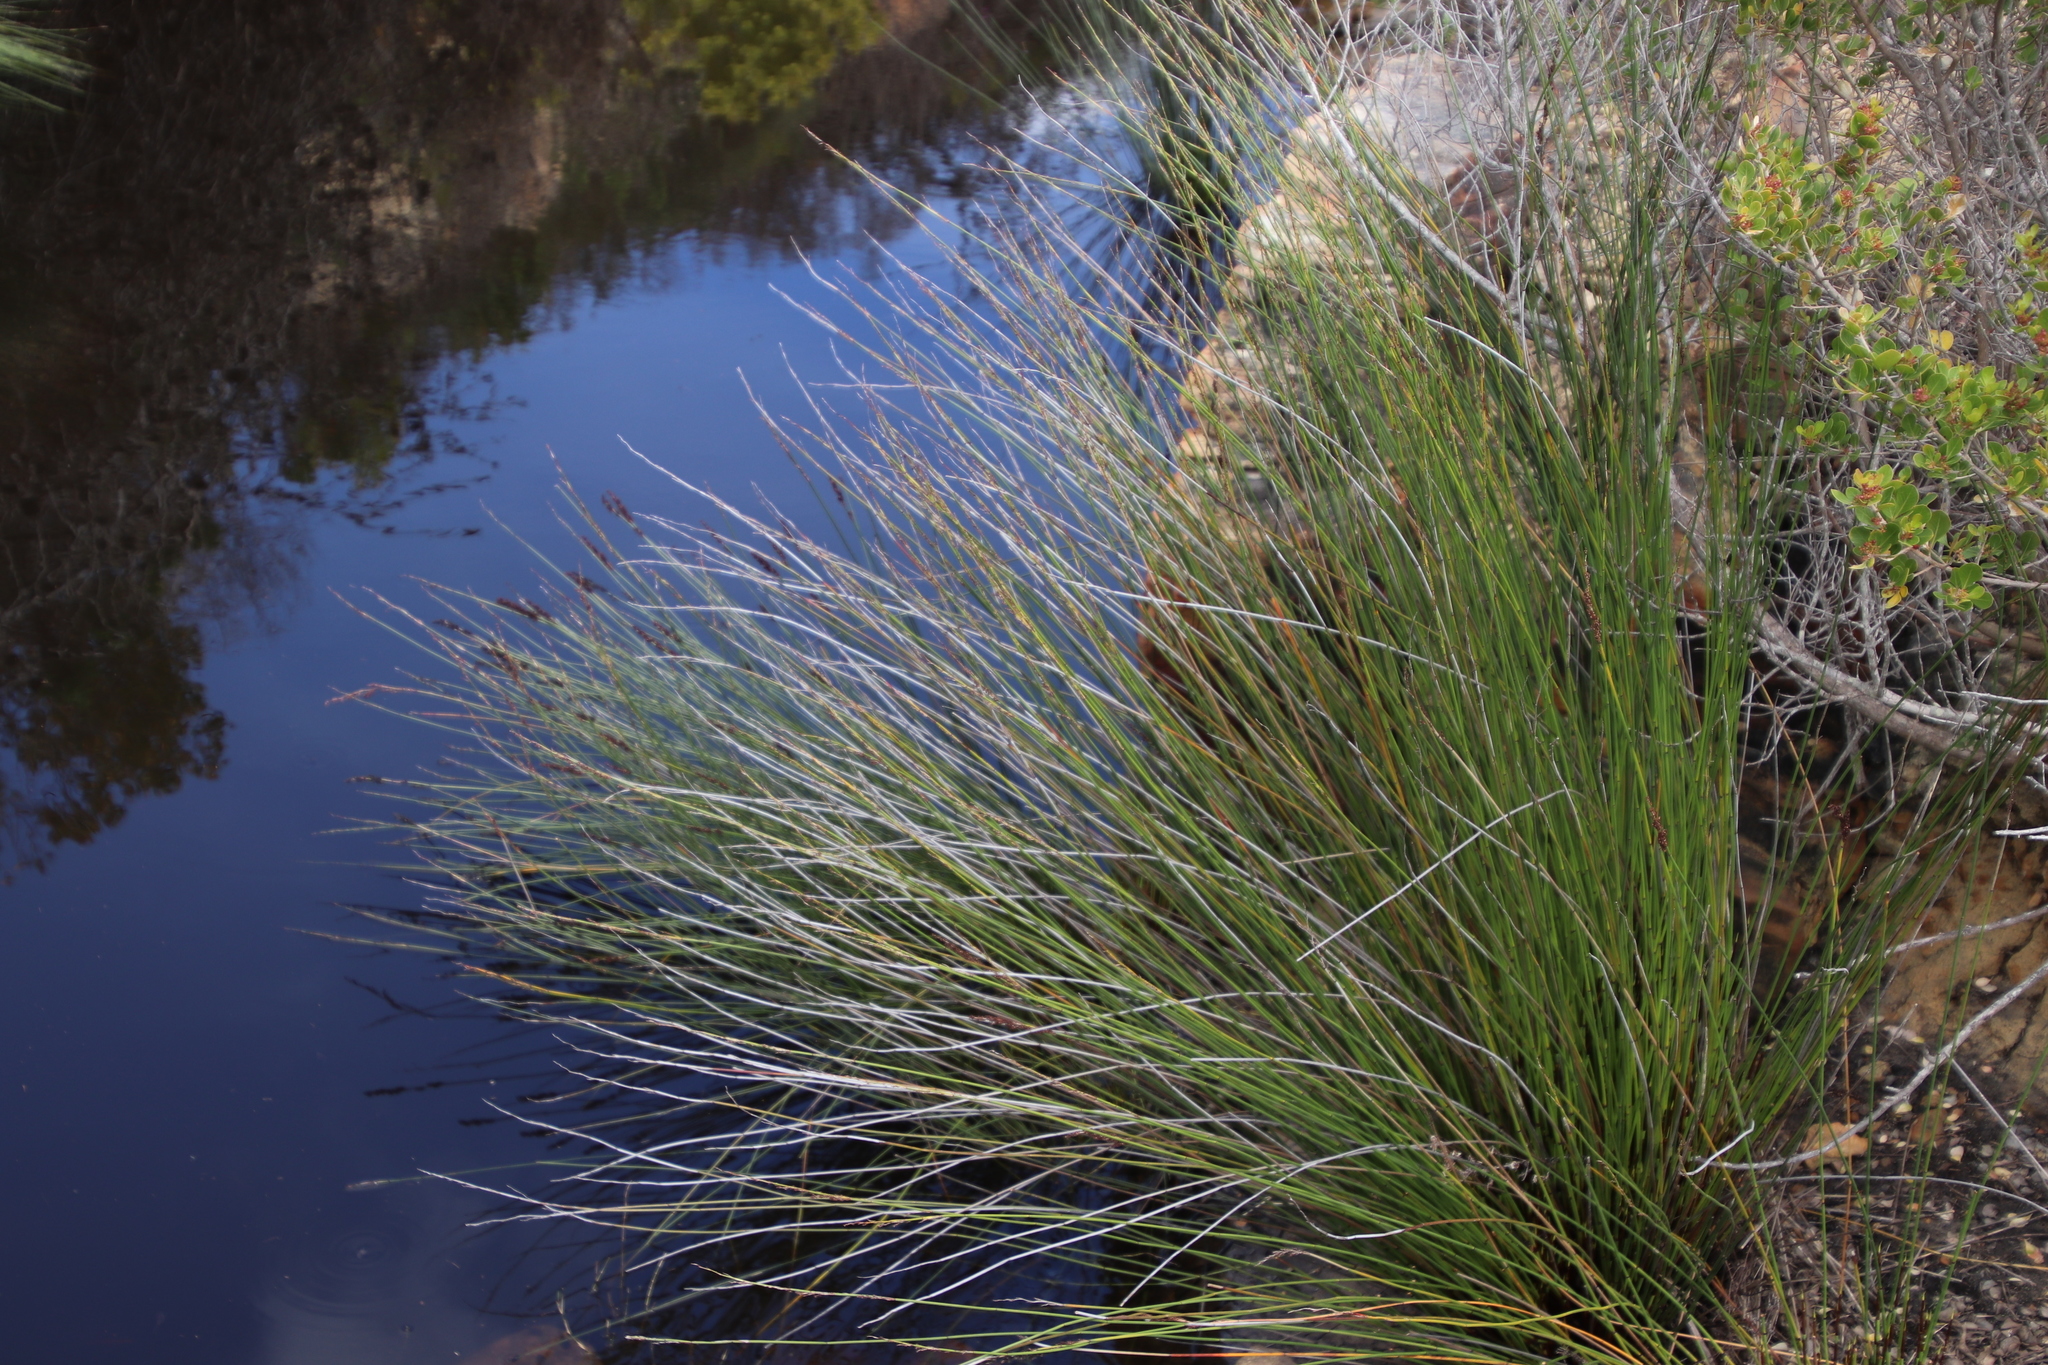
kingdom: Plantae
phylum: Tracheophyta
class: Liliopsida
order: Poales
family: Restionaceae
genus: Elegia
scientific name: Elegia tectorum
